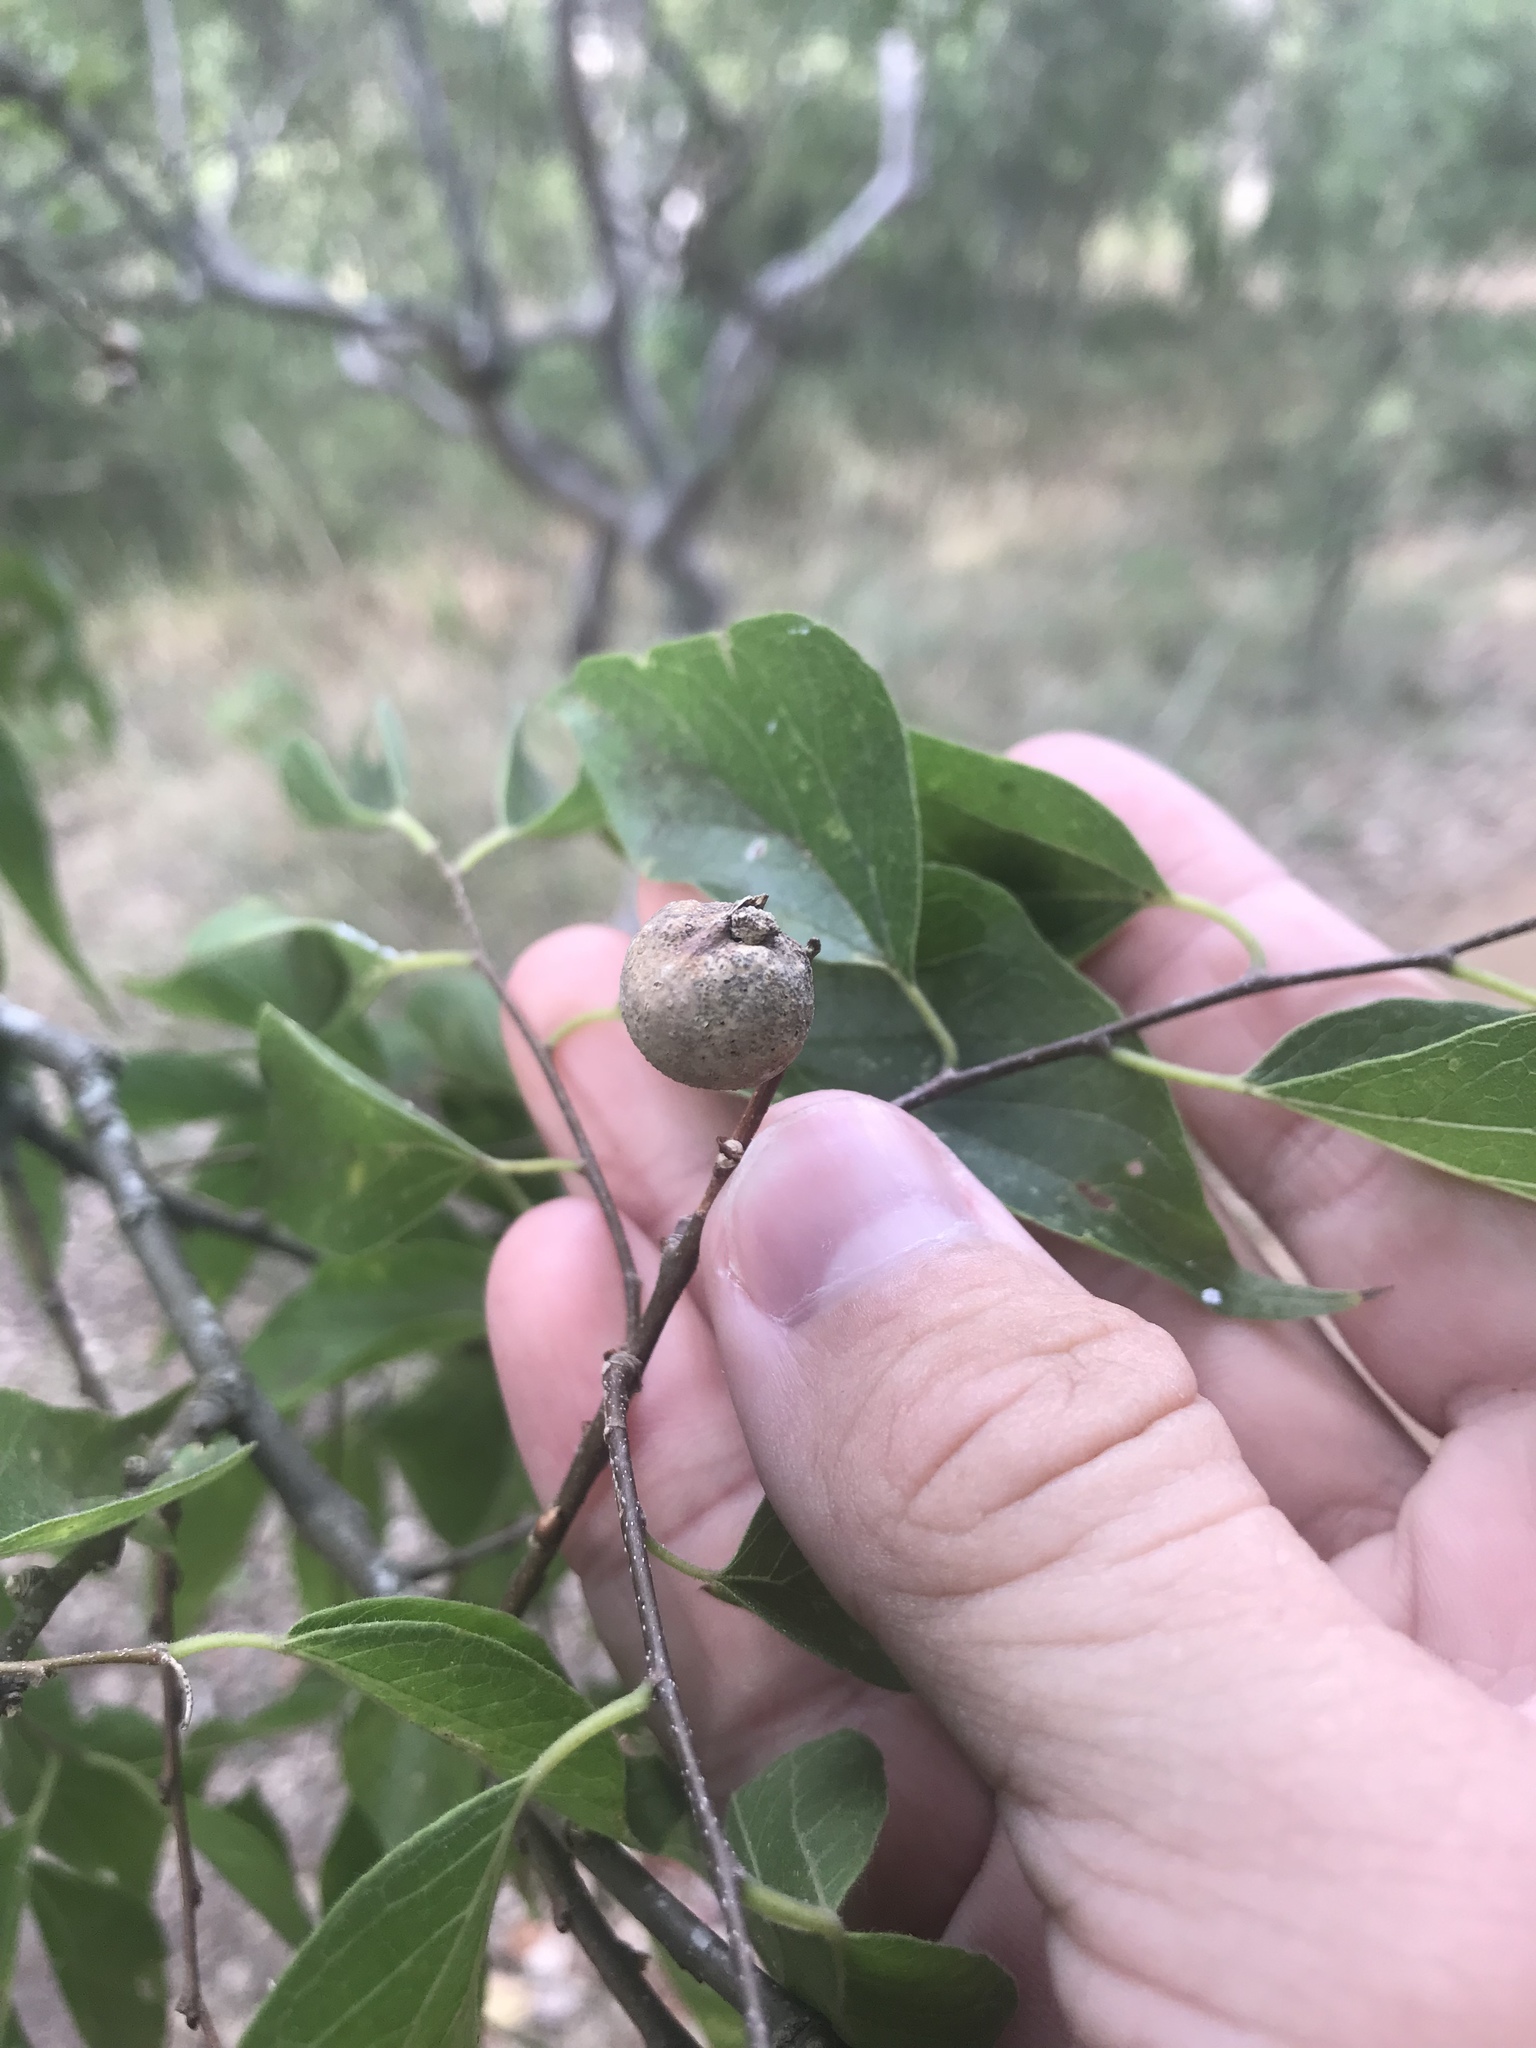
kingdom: Animalia
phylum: Arthropoda
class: Insecta
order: Hemiptera
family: Aphalaridae
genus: Pachypsylla
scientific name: Pachypsylla venusta
